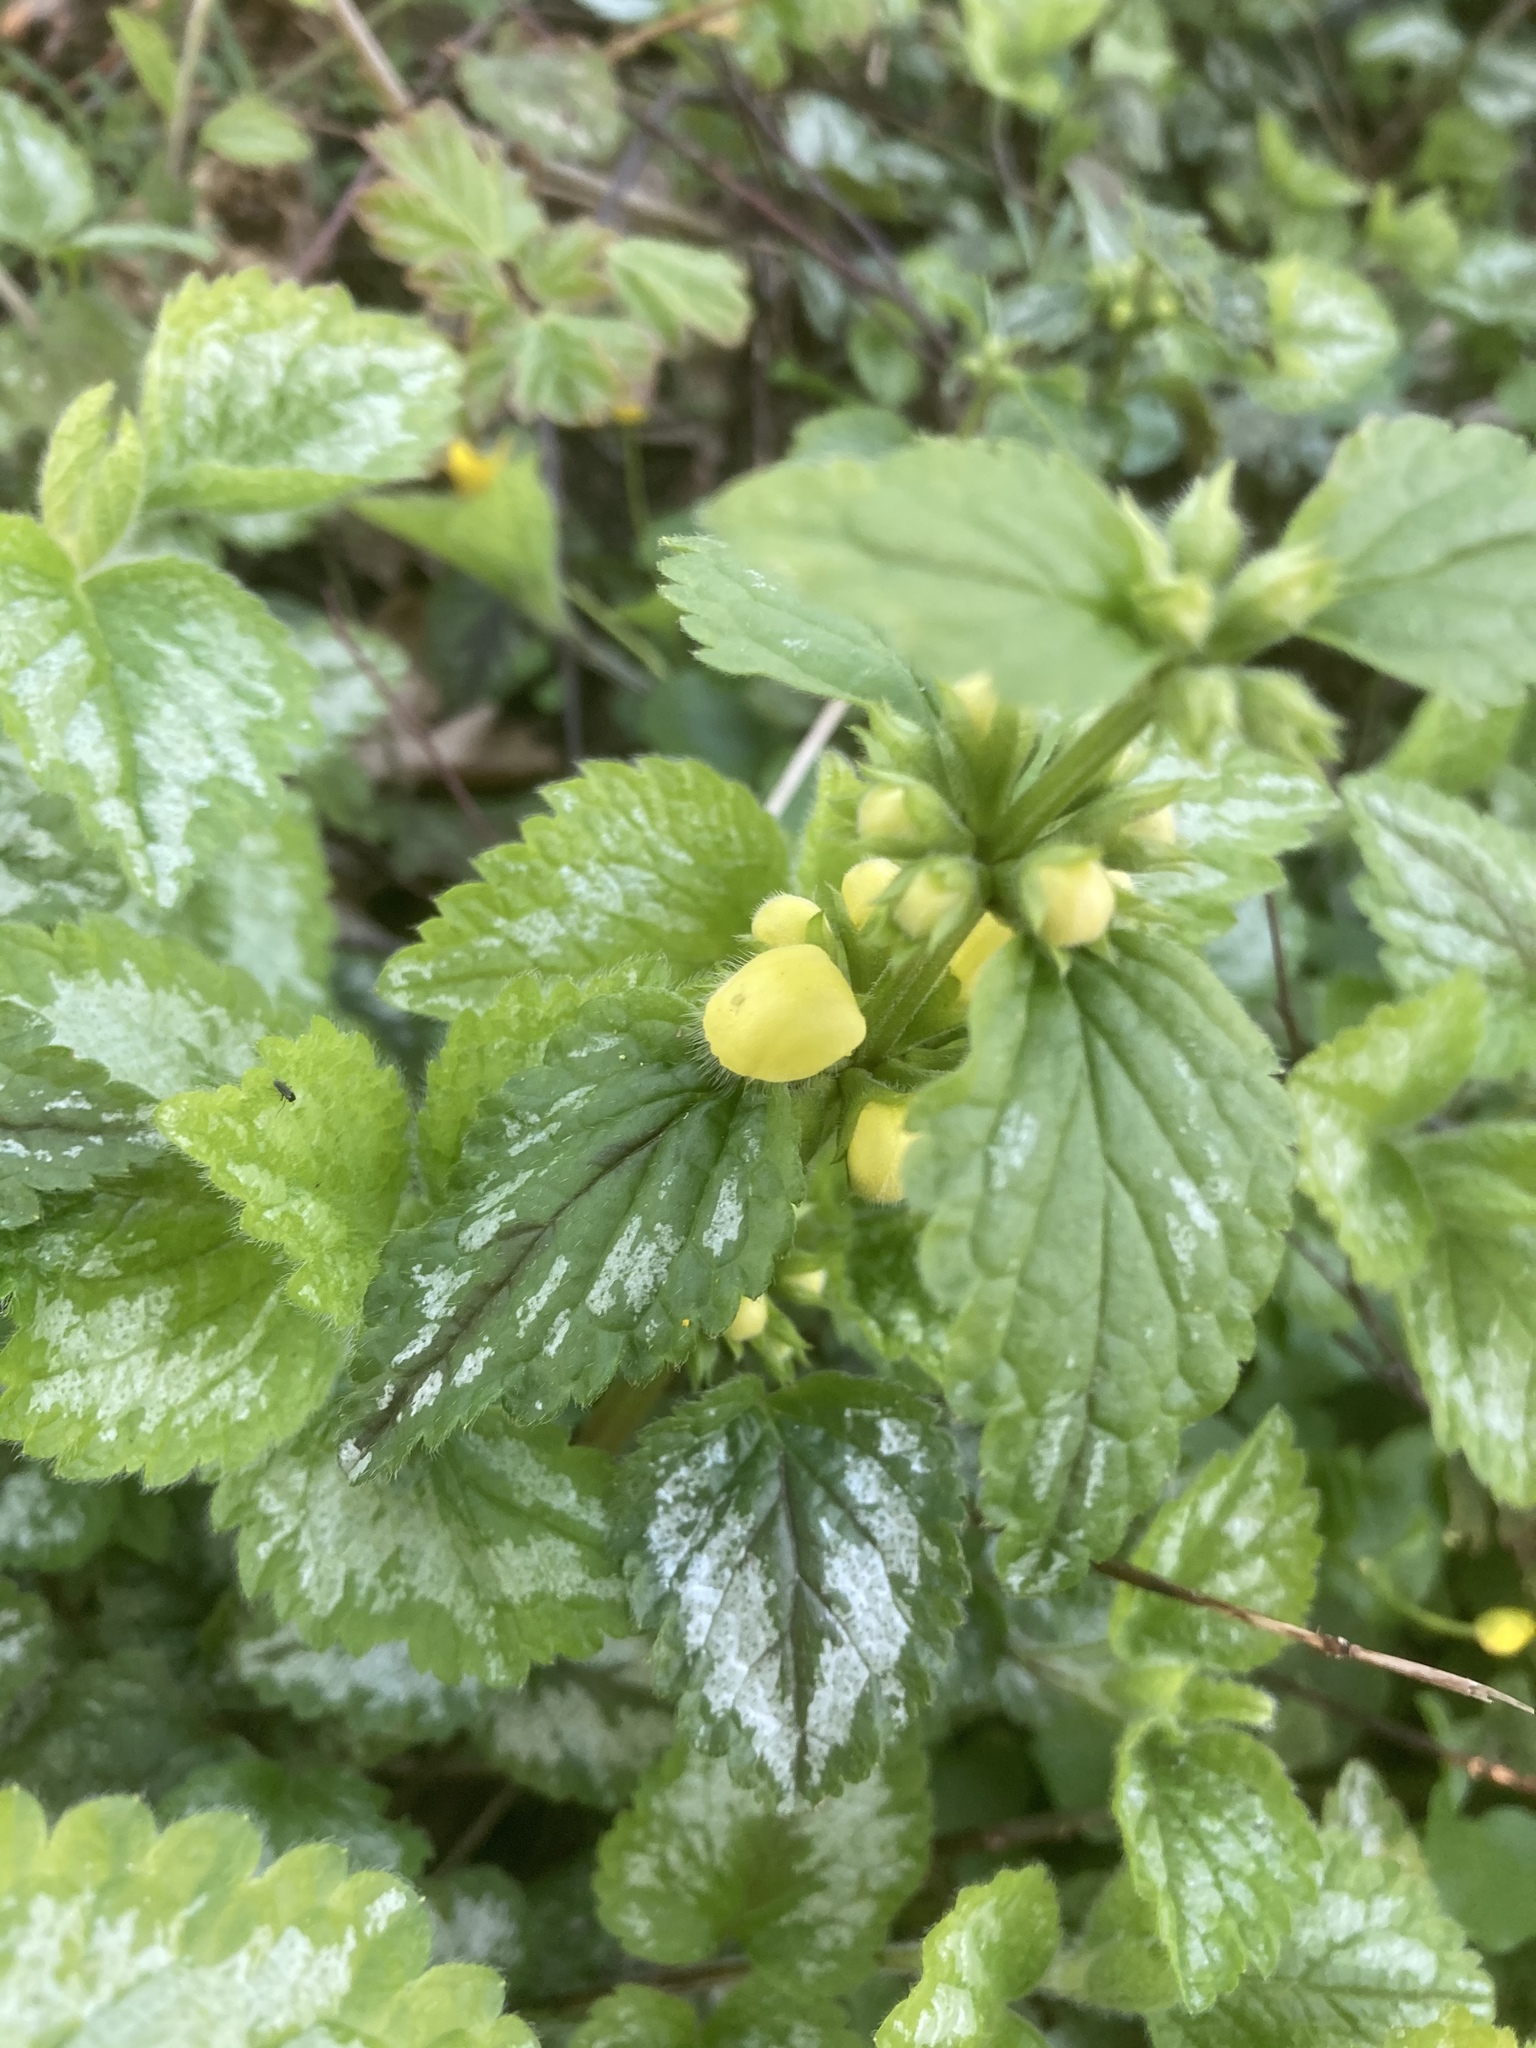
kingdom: Plantae
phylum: Tracheophyta
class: Magnoliopsida
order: Lamiales
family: Lamiaceae
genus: Lamium
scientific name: Lamium galeobdolon
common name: Yellow archangel
